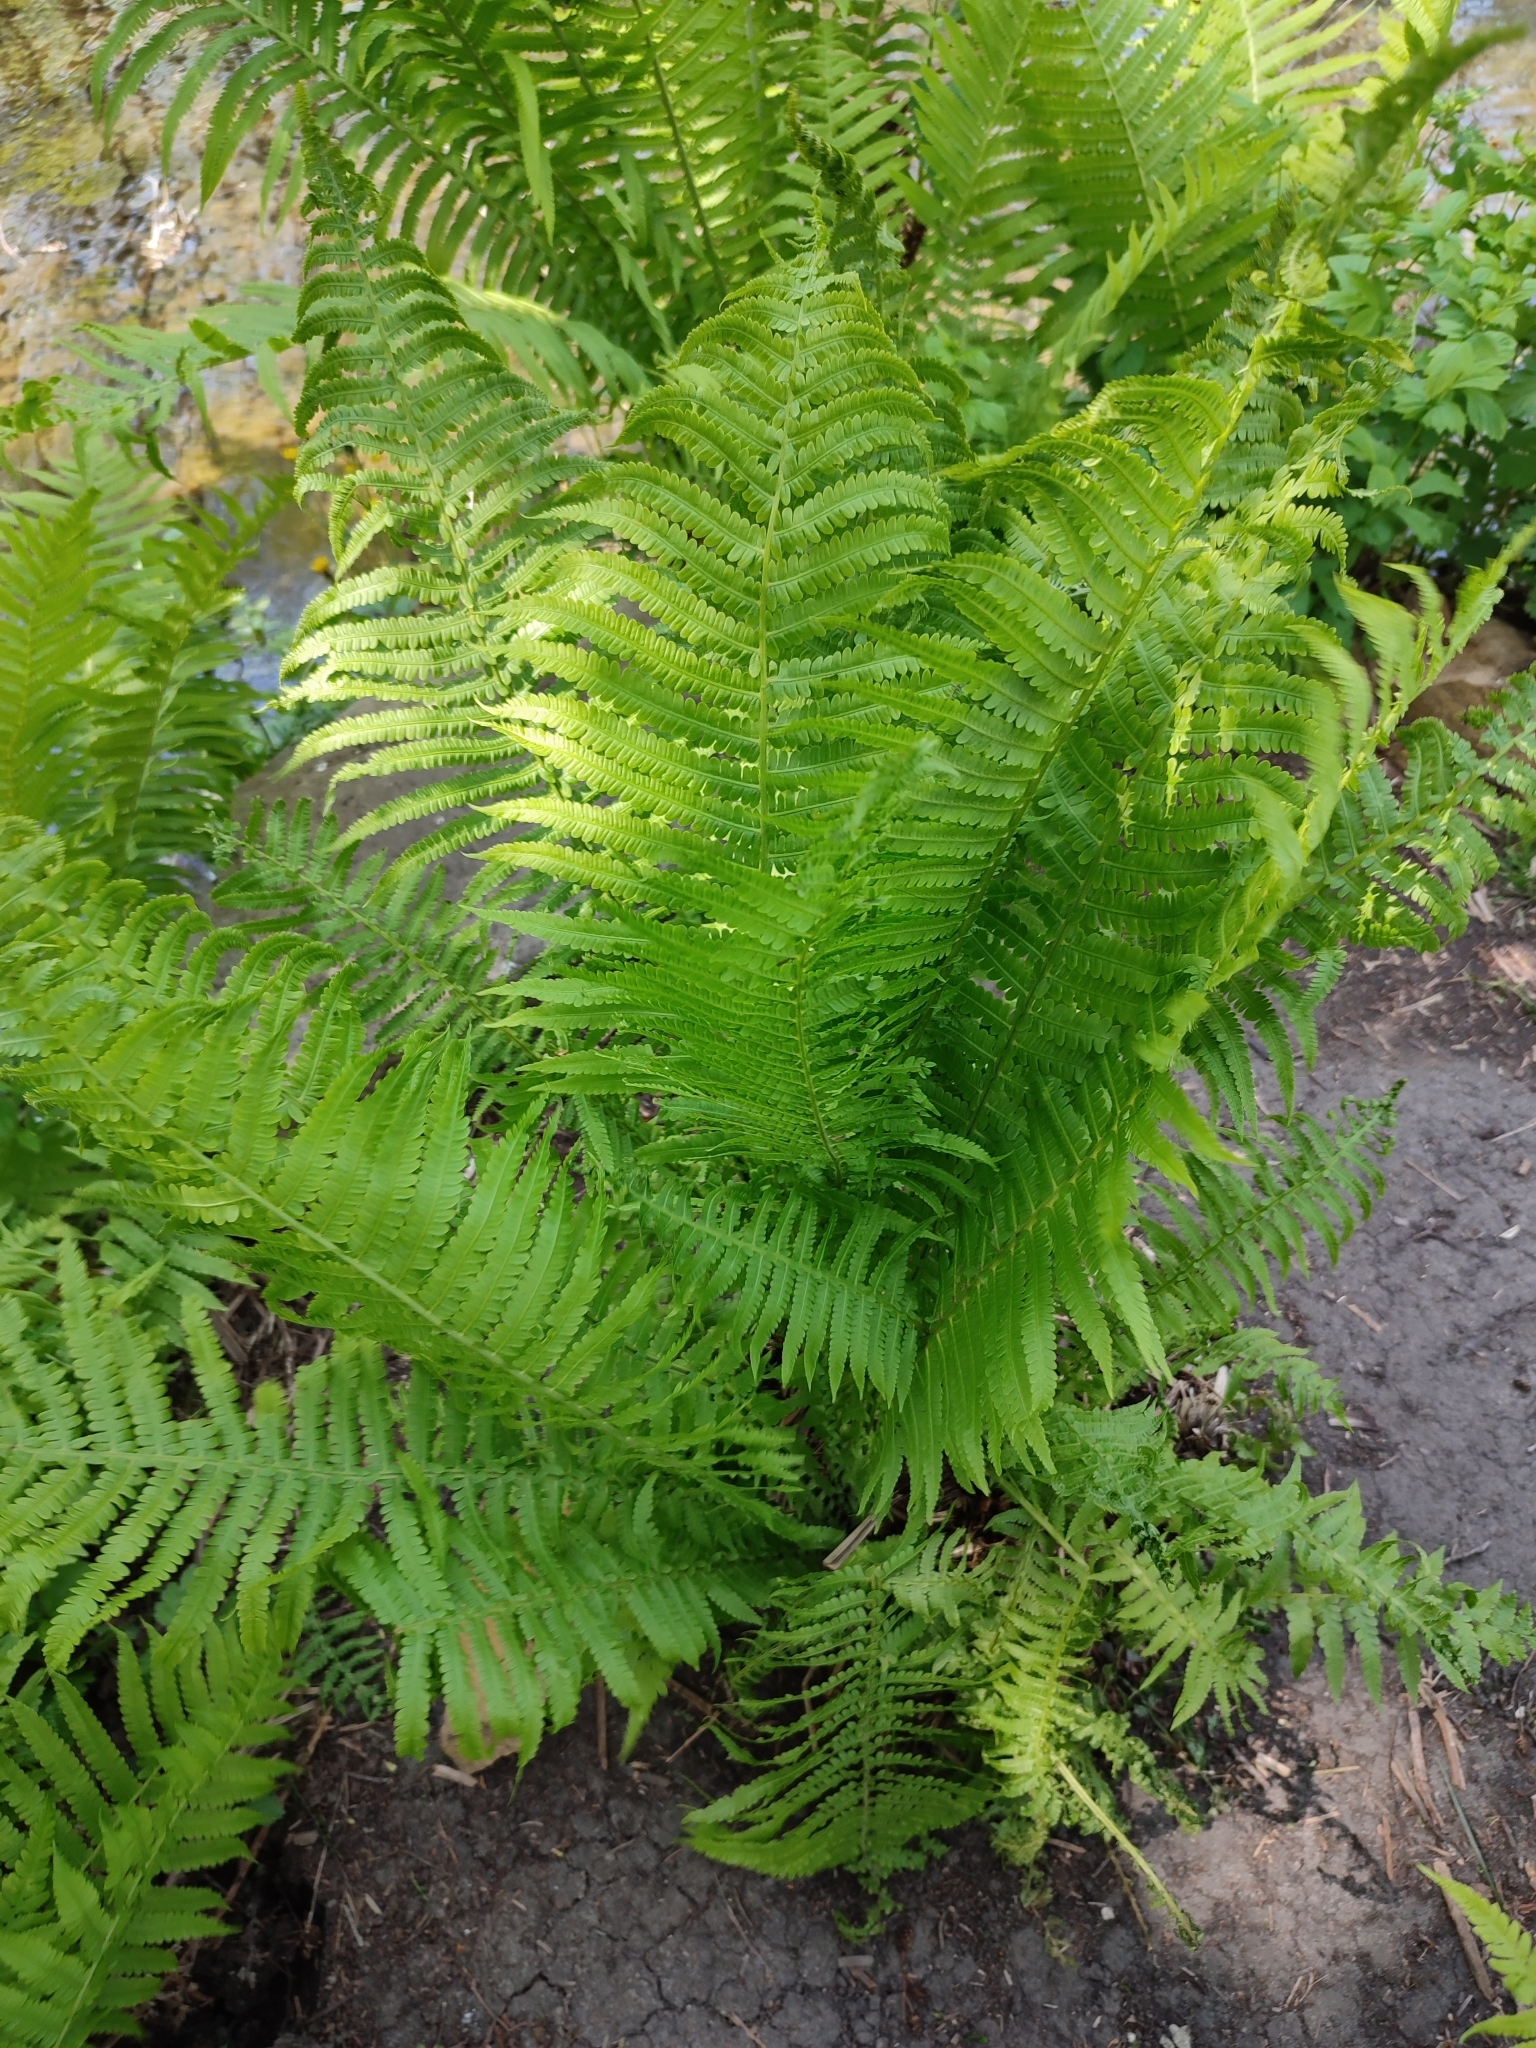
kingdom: Plantae
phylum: Tracheophyta
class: Polypodiopsida
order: Polypodiales
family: Onocleaceae
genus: Matteuccia
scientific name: Matteuccia struthiopteris
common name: Ostrich fern
